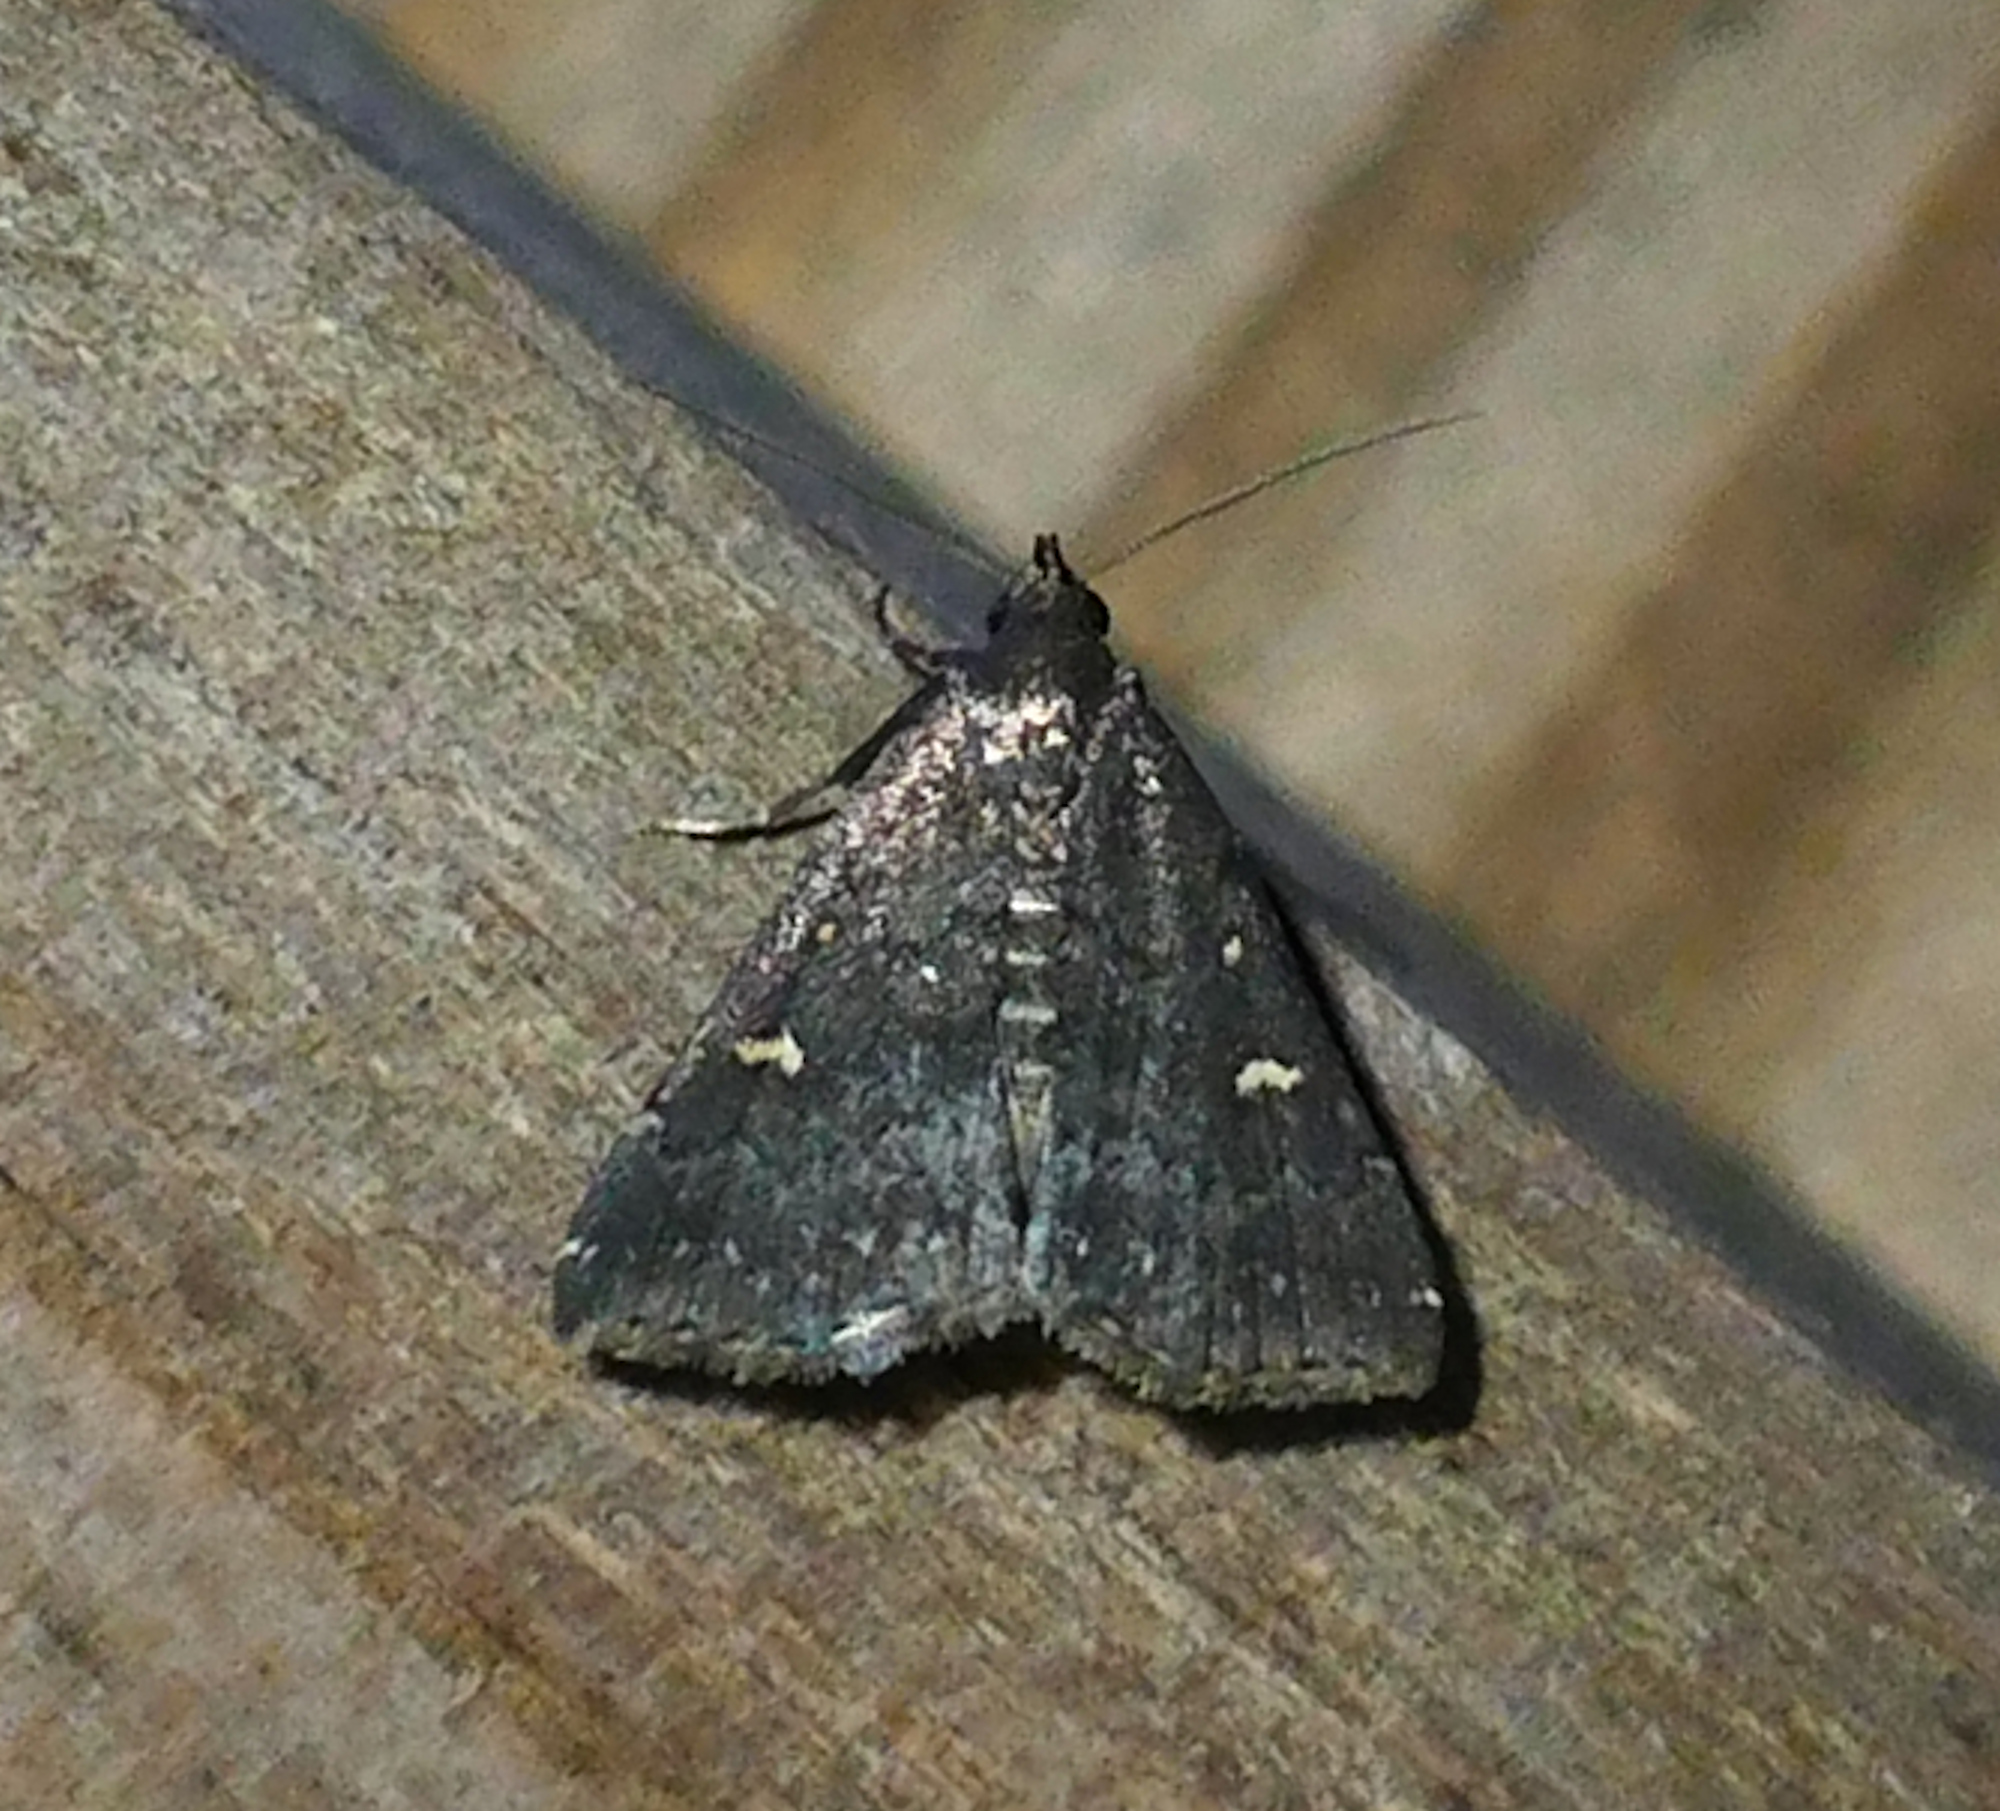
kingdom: Animalia
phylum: Arthropoda
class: Insecta
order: Lepidoptera
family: Erebidae
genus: Tetanolita
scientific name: Tetanolita mynesalis
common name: Smoky tetanolita moth
